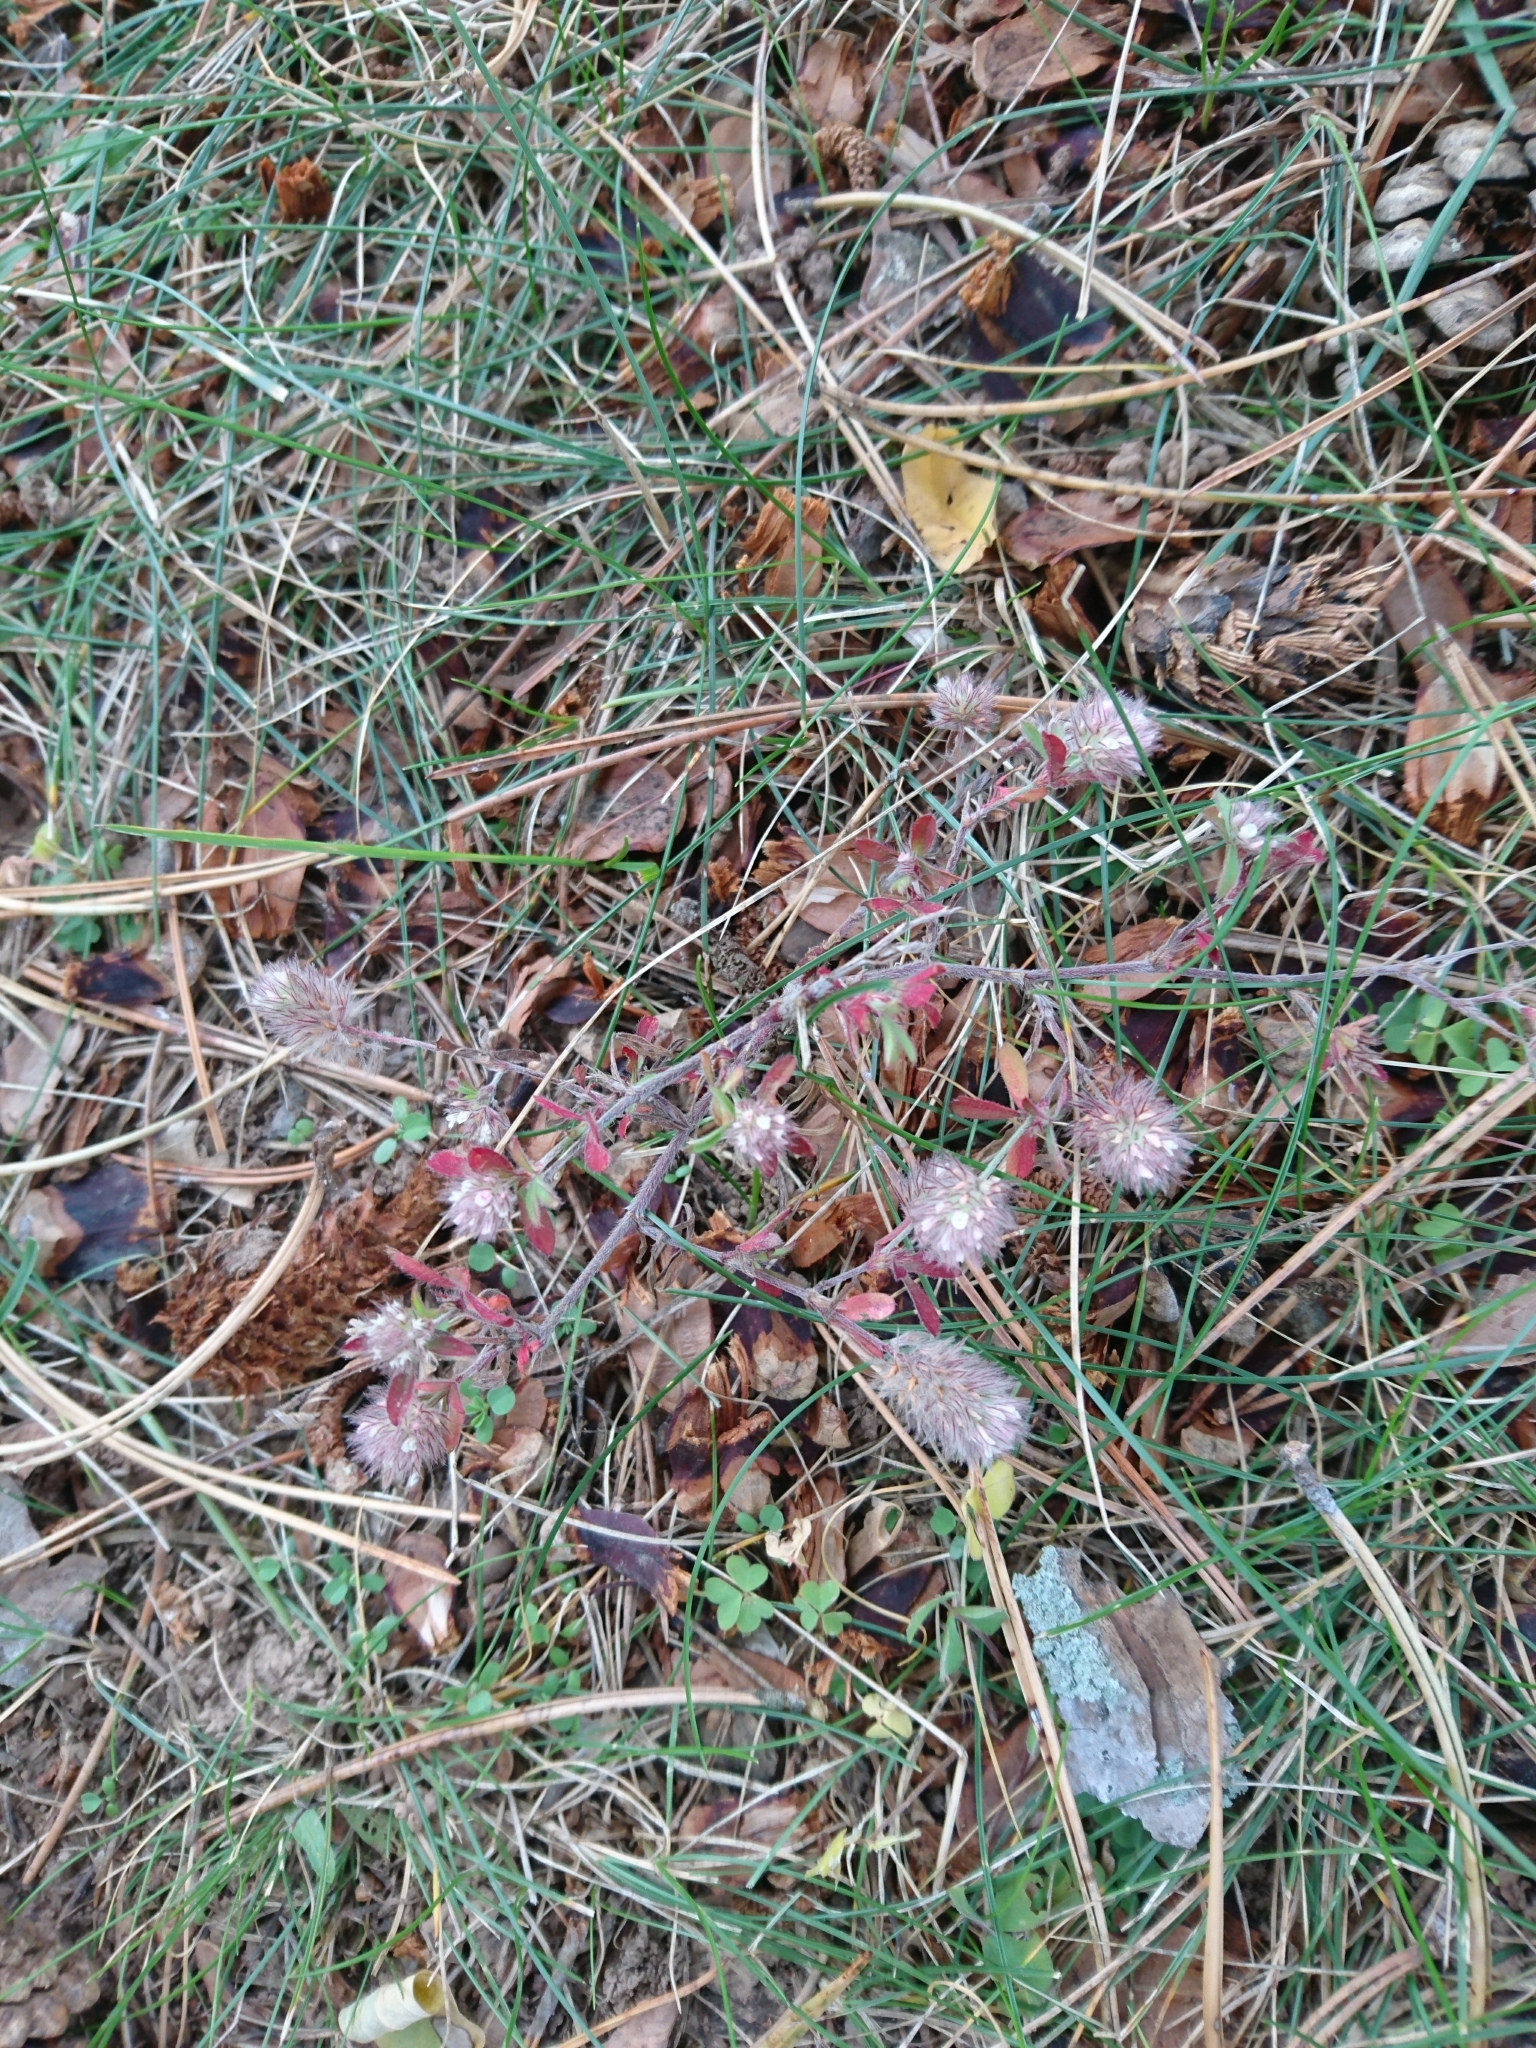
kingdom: Plantae
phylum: Tracheophyta
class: Magnoliopsida
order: Fabales
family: Fabaceae
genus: Trifolium
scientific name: Trifolium arvense
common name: Hare's-foot clover
